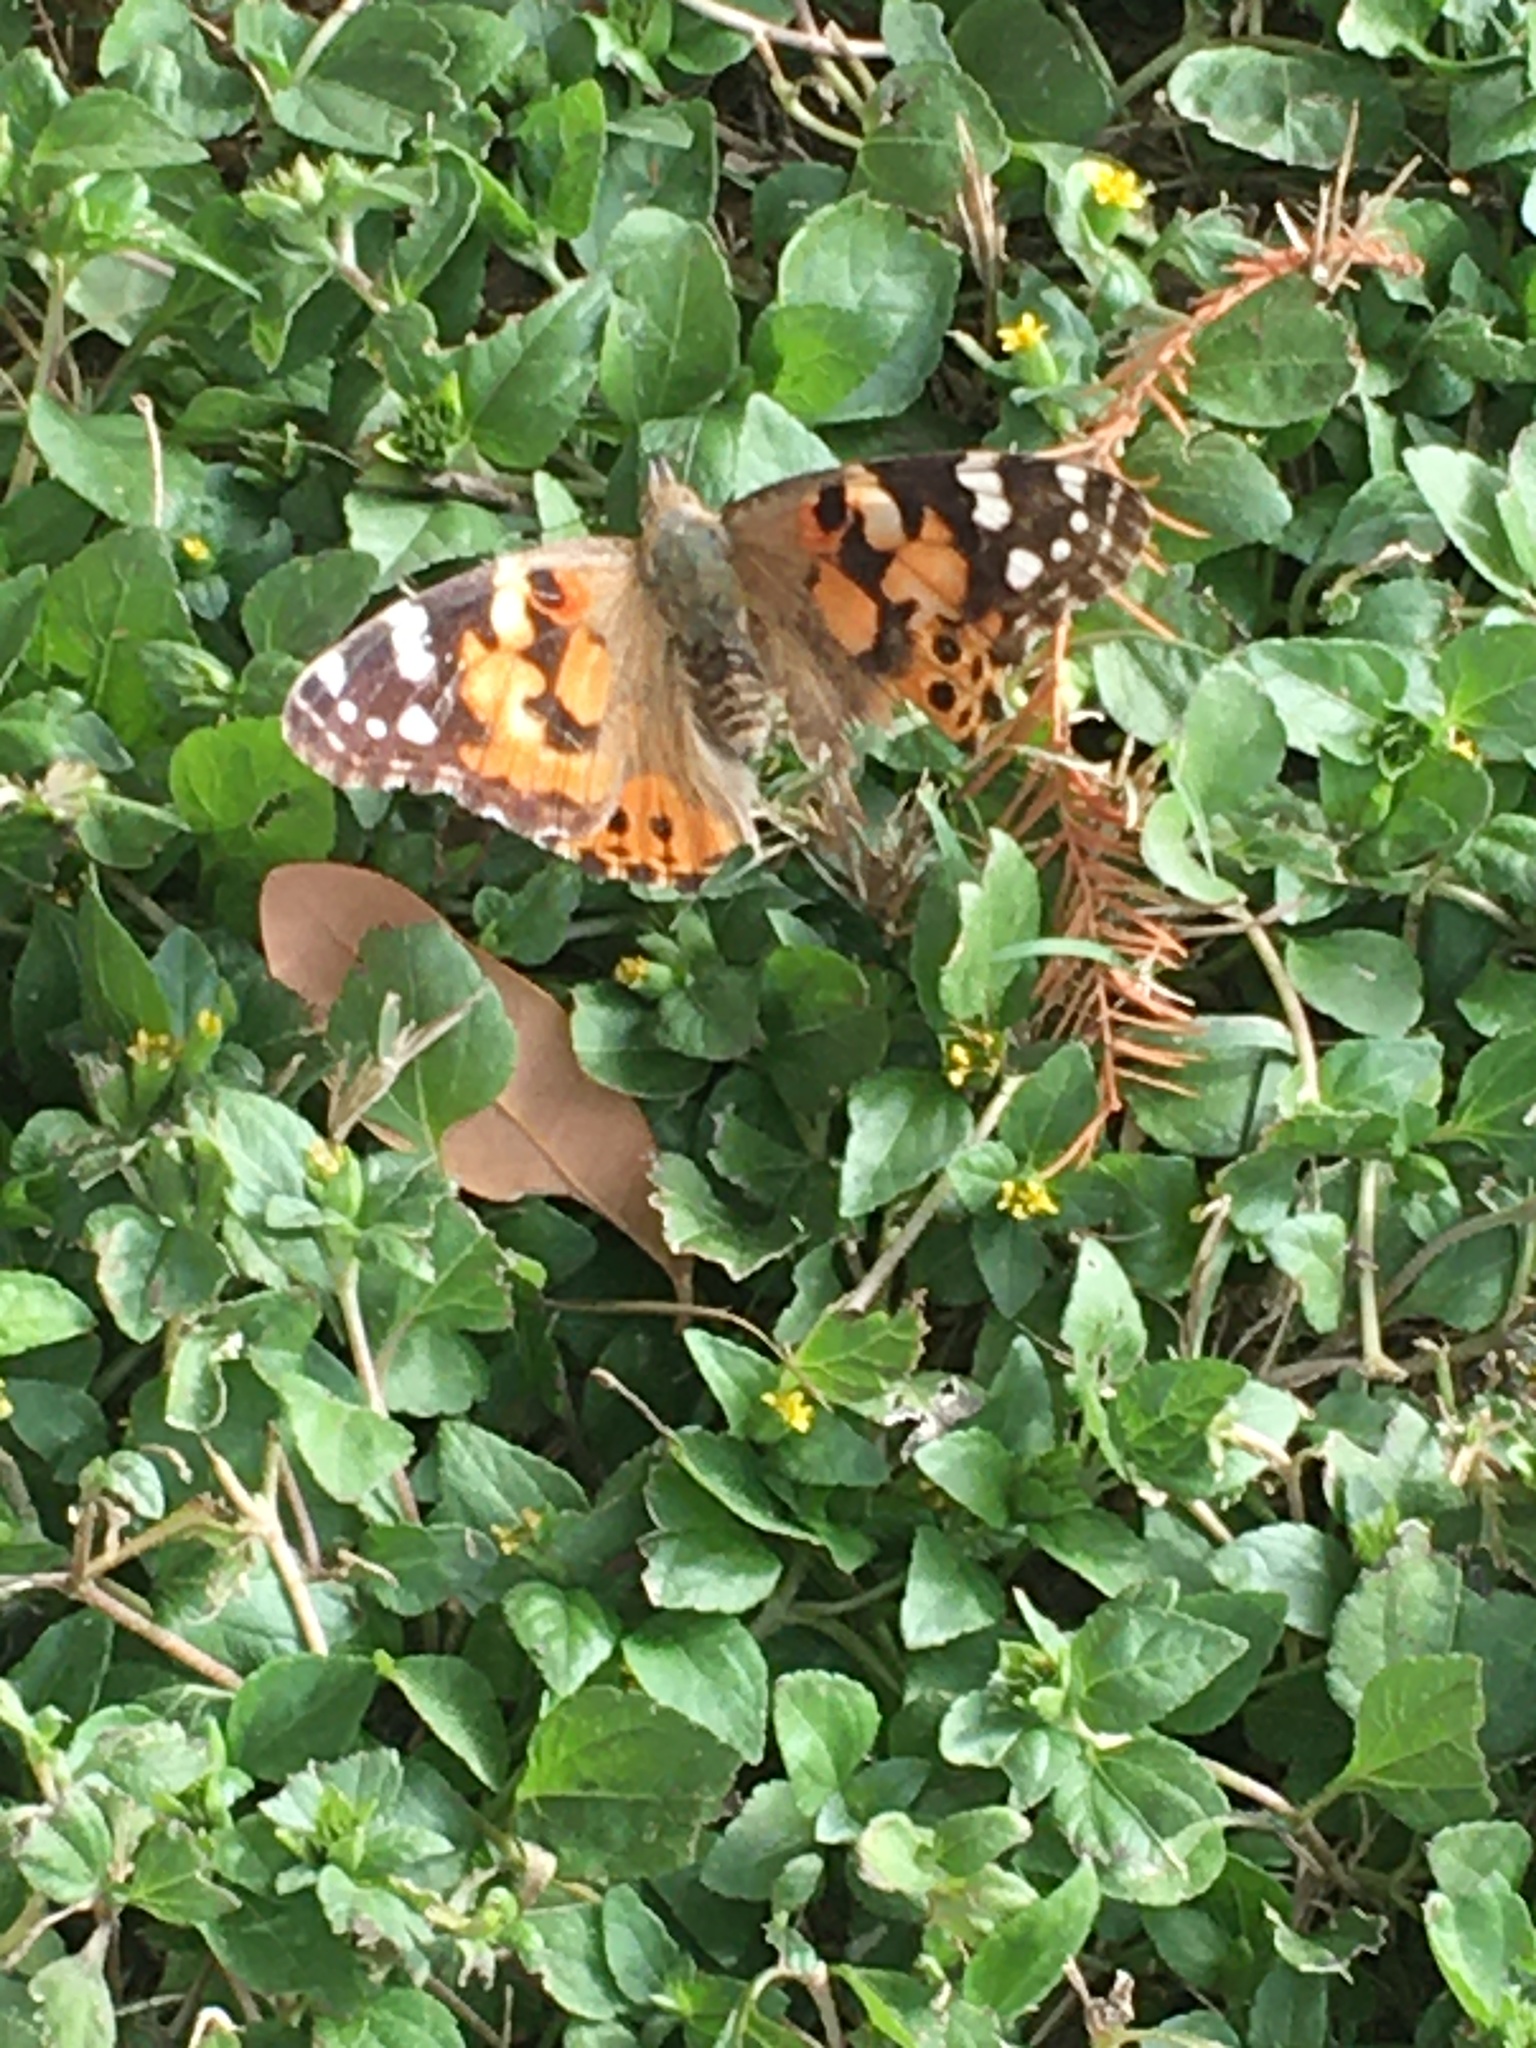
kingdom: Animalia
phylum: Arthropoda
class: Insecta
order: Lepidoptera
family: Nymphalidae
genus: Vanessa
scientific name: Vanessa cardui
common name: Painted lady
